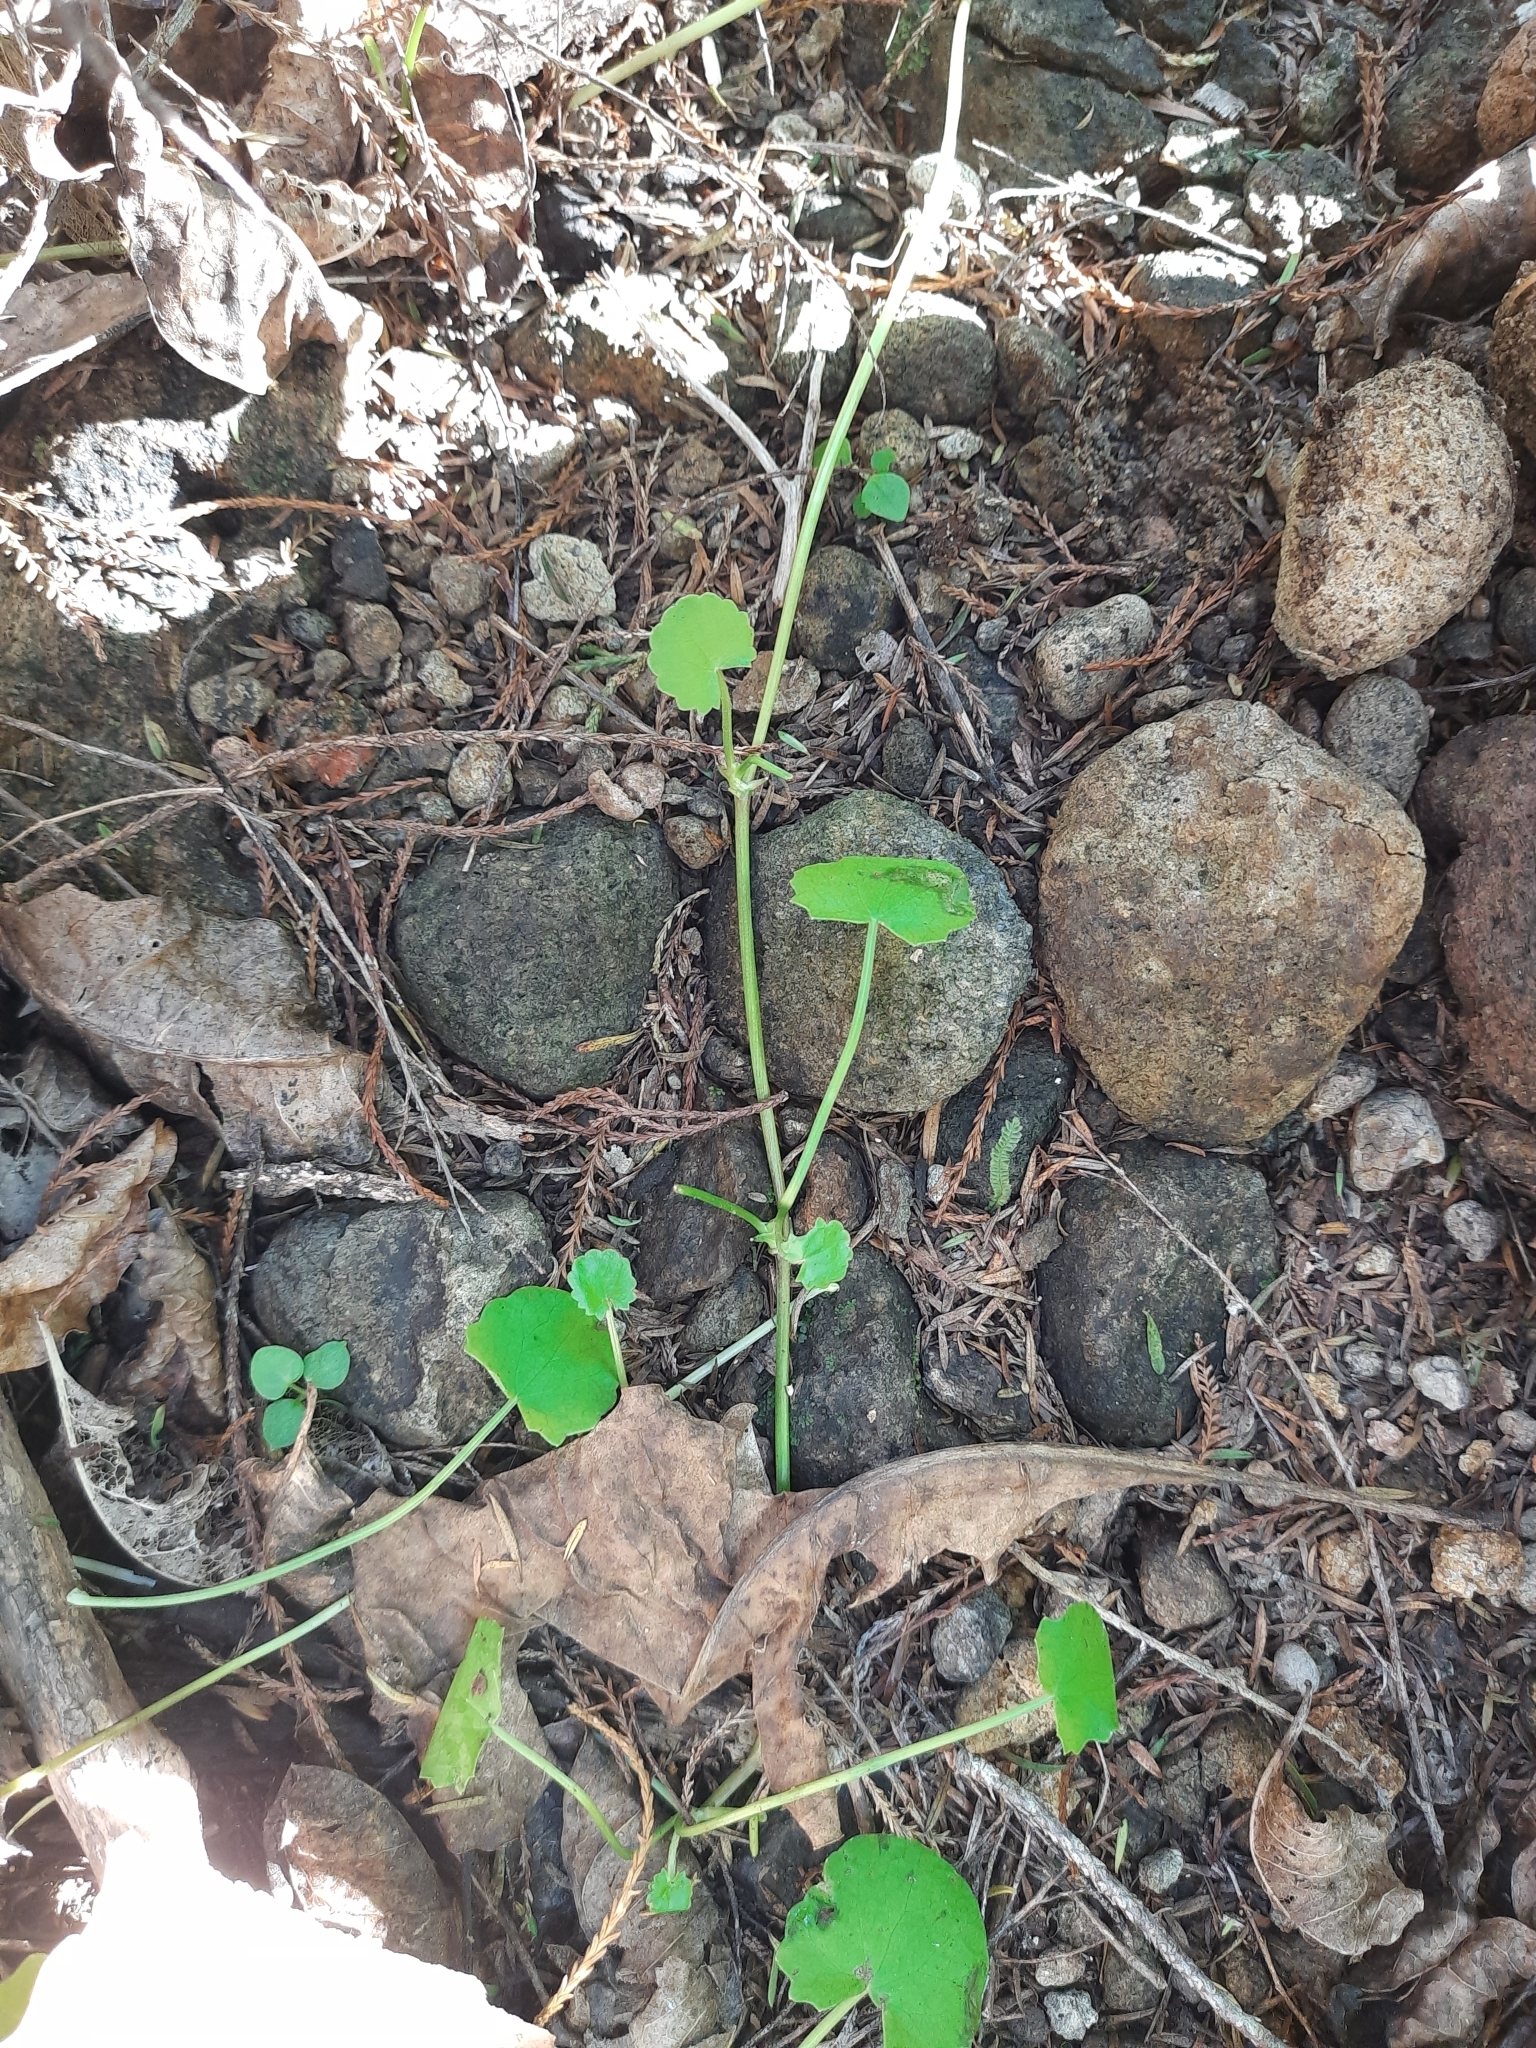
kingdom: Plantae
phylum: Tracheophyta
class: Magnoliopsida
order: Apiales
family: Apiaceae
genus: Centella
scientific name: Centella uniflora
